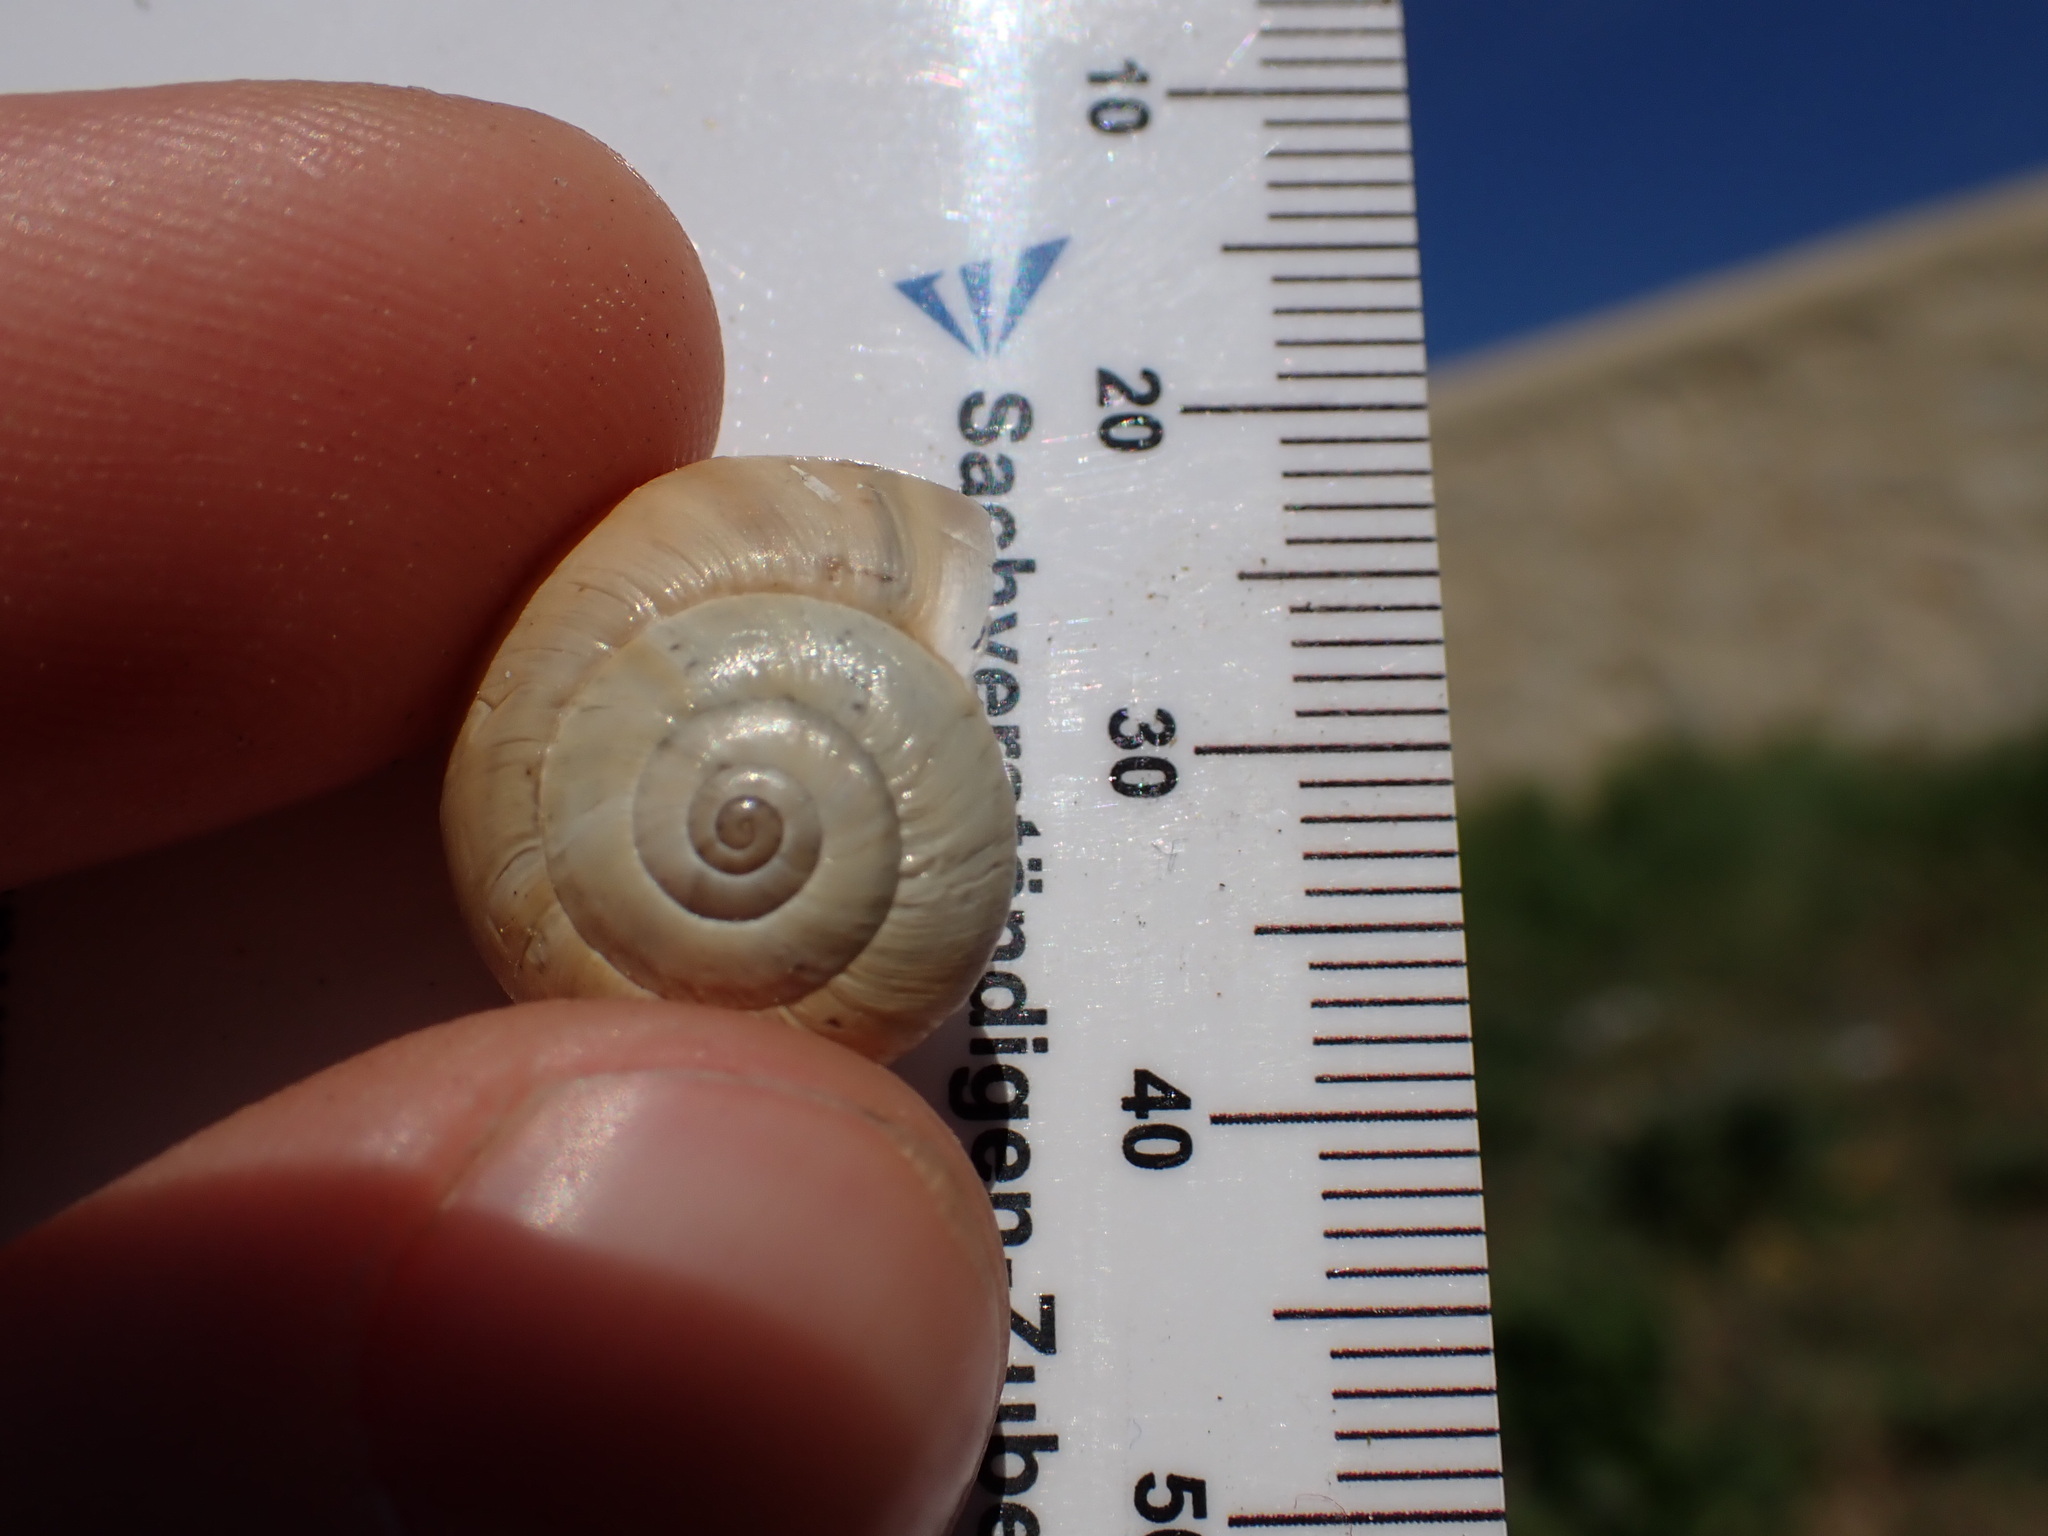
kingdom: Animalia
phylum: Mollusca
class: Gastropoda
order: Stylommatophora
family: Helicidae
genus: Theba
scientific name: Theba pisana
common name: White snail
